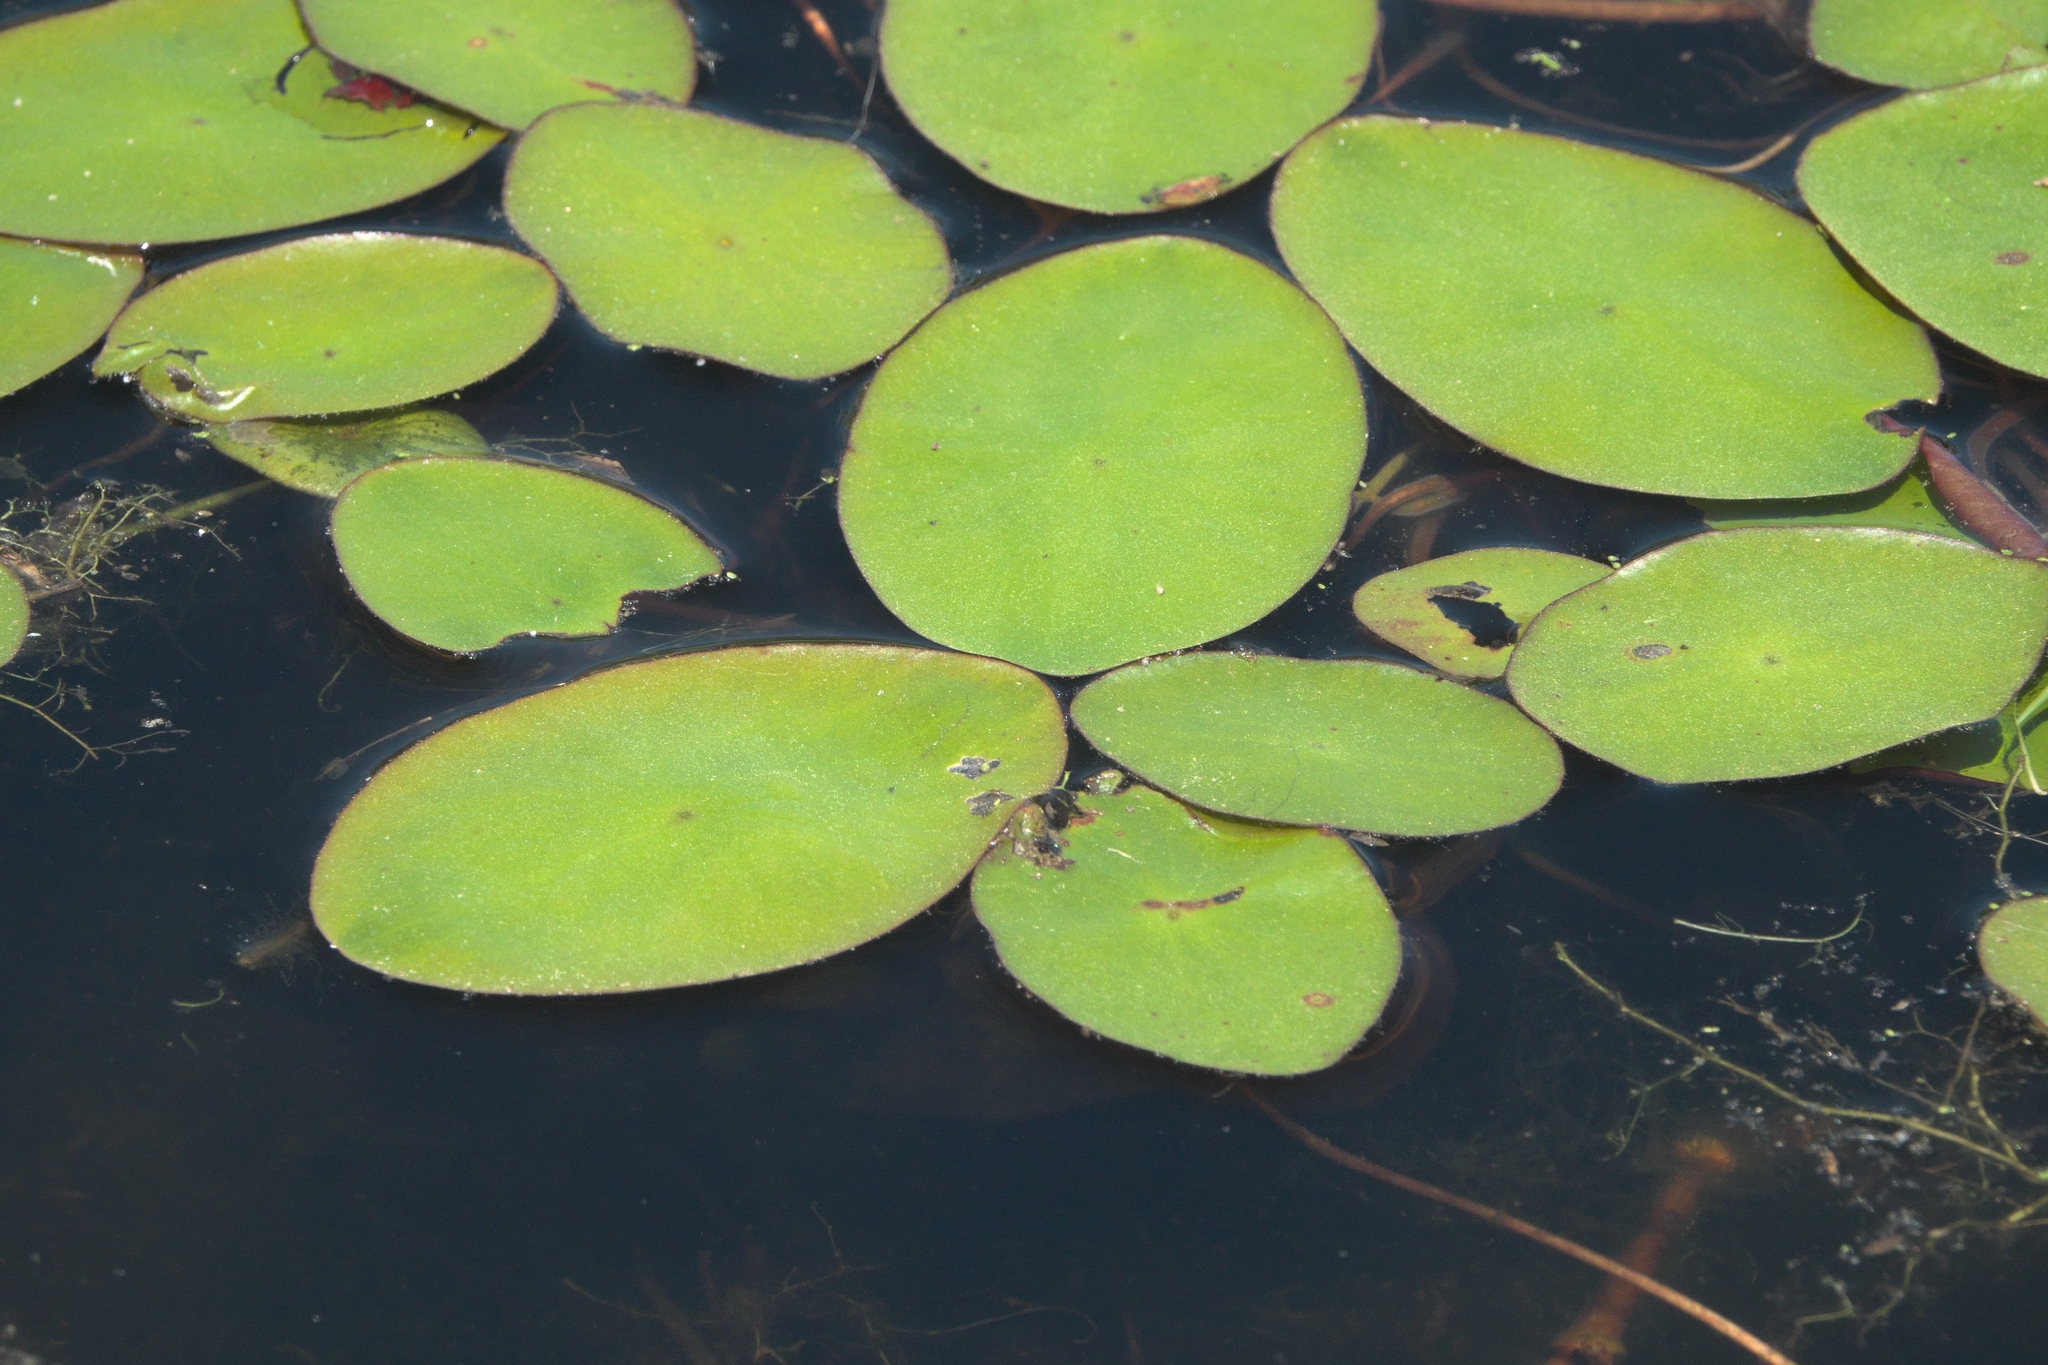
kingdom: Plantae
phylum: Tracheophyta
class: Magnoliopsida
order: Nymphaeales
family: Cabombaceae
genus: Brasenia
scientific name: Brasenia schreberi
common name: Water-shield
